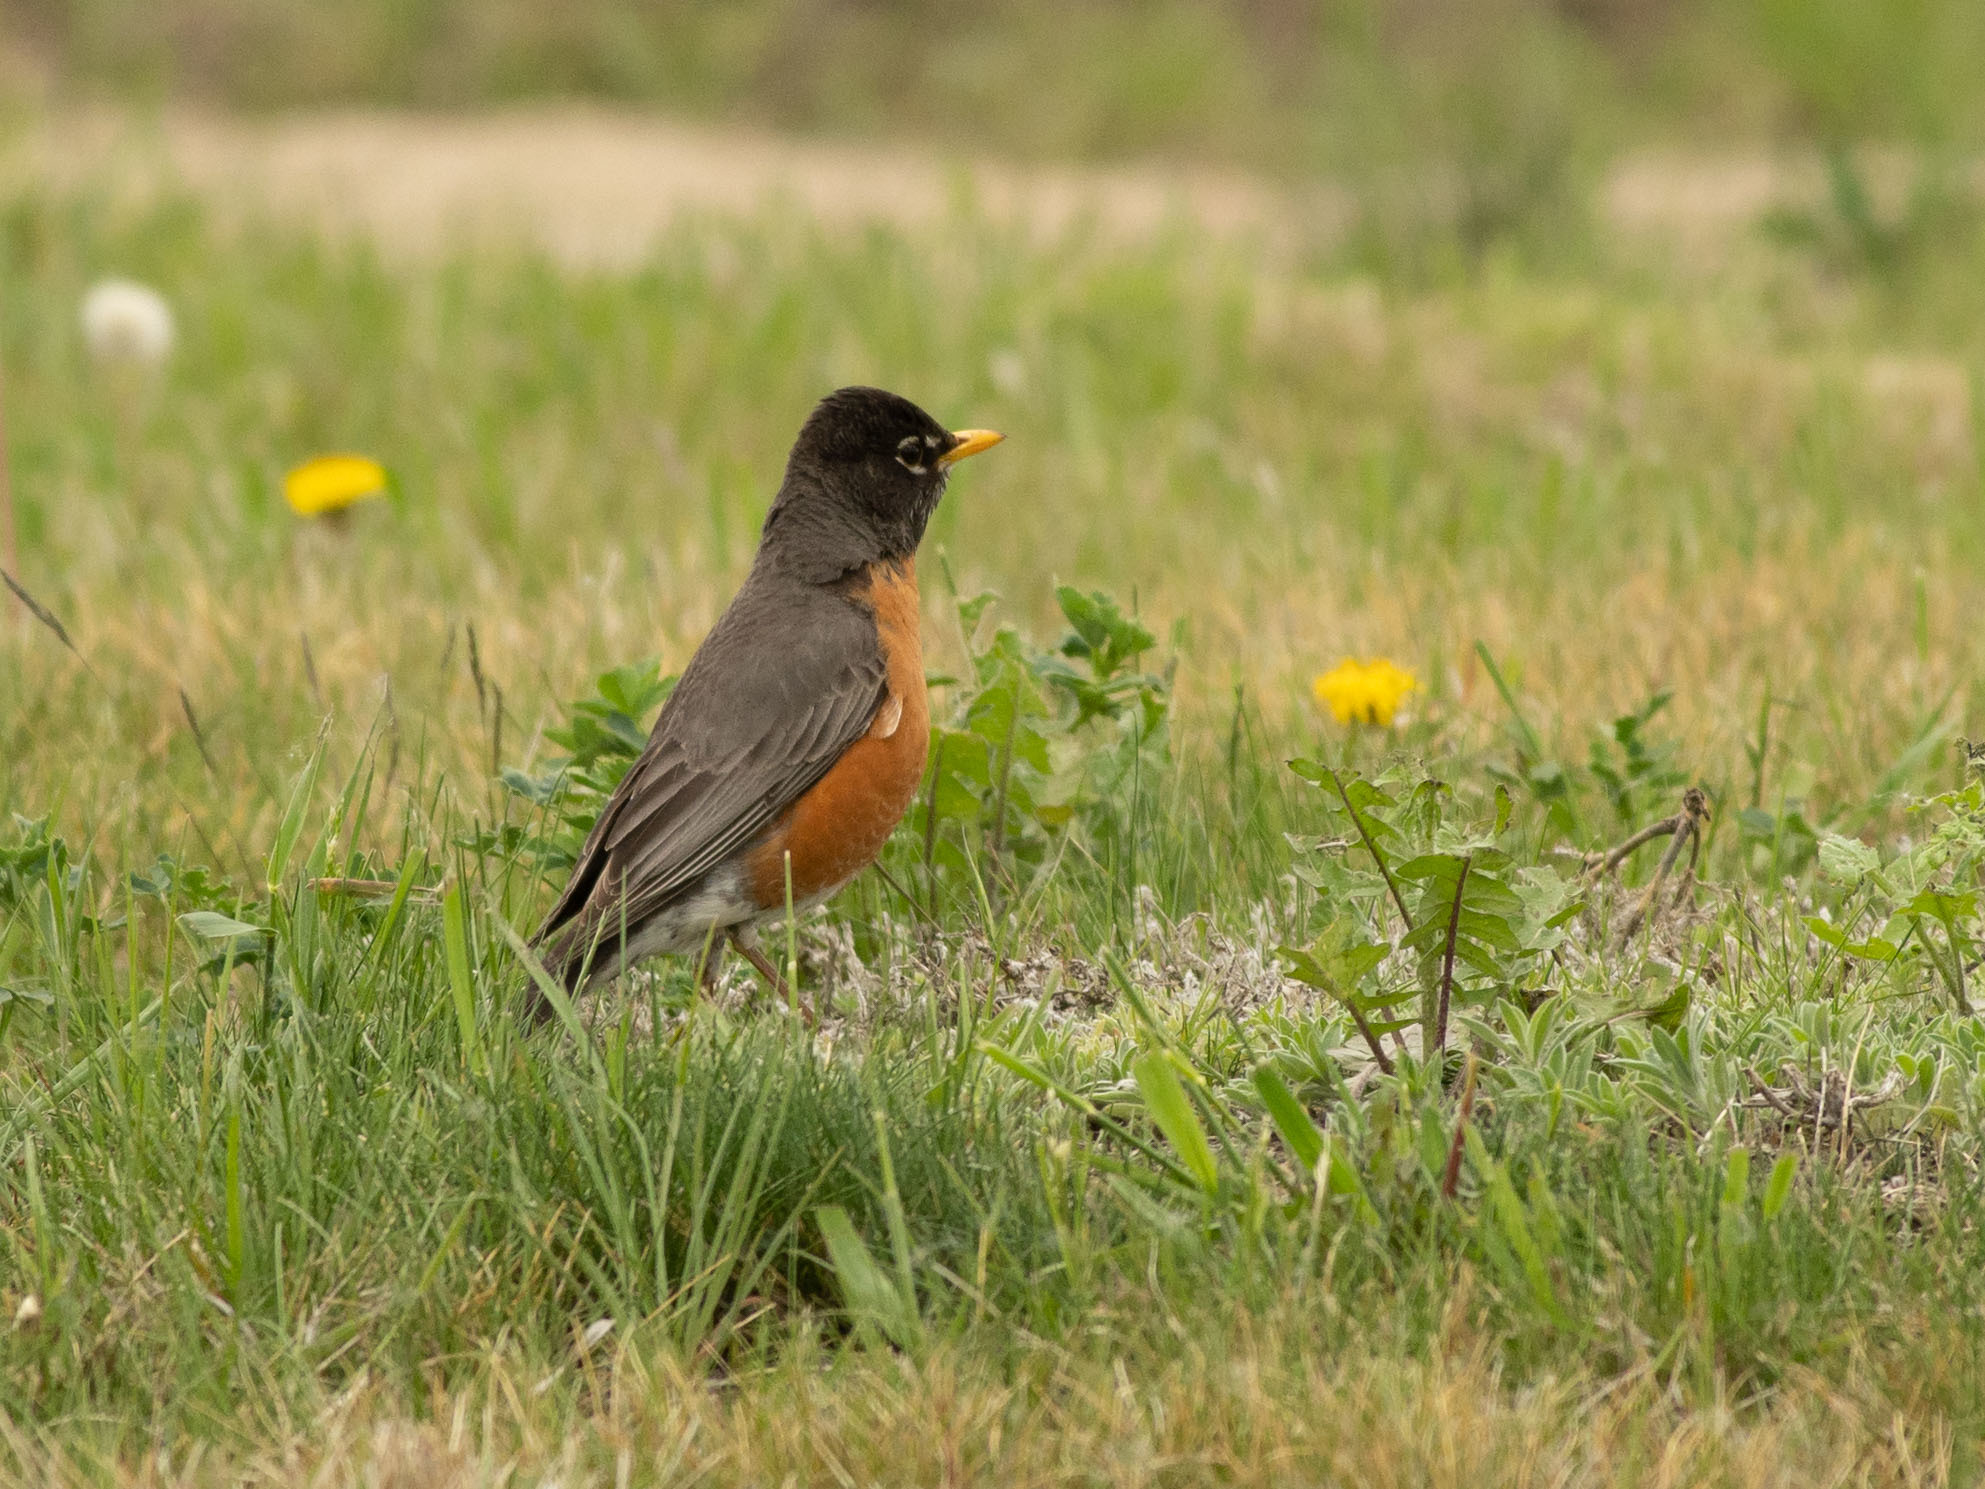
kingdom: Animalia
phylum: Chordata
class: Aves
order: Passeriformes
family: Turdidae
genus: Turdus
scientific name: Turdus migratorius
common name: American robin
